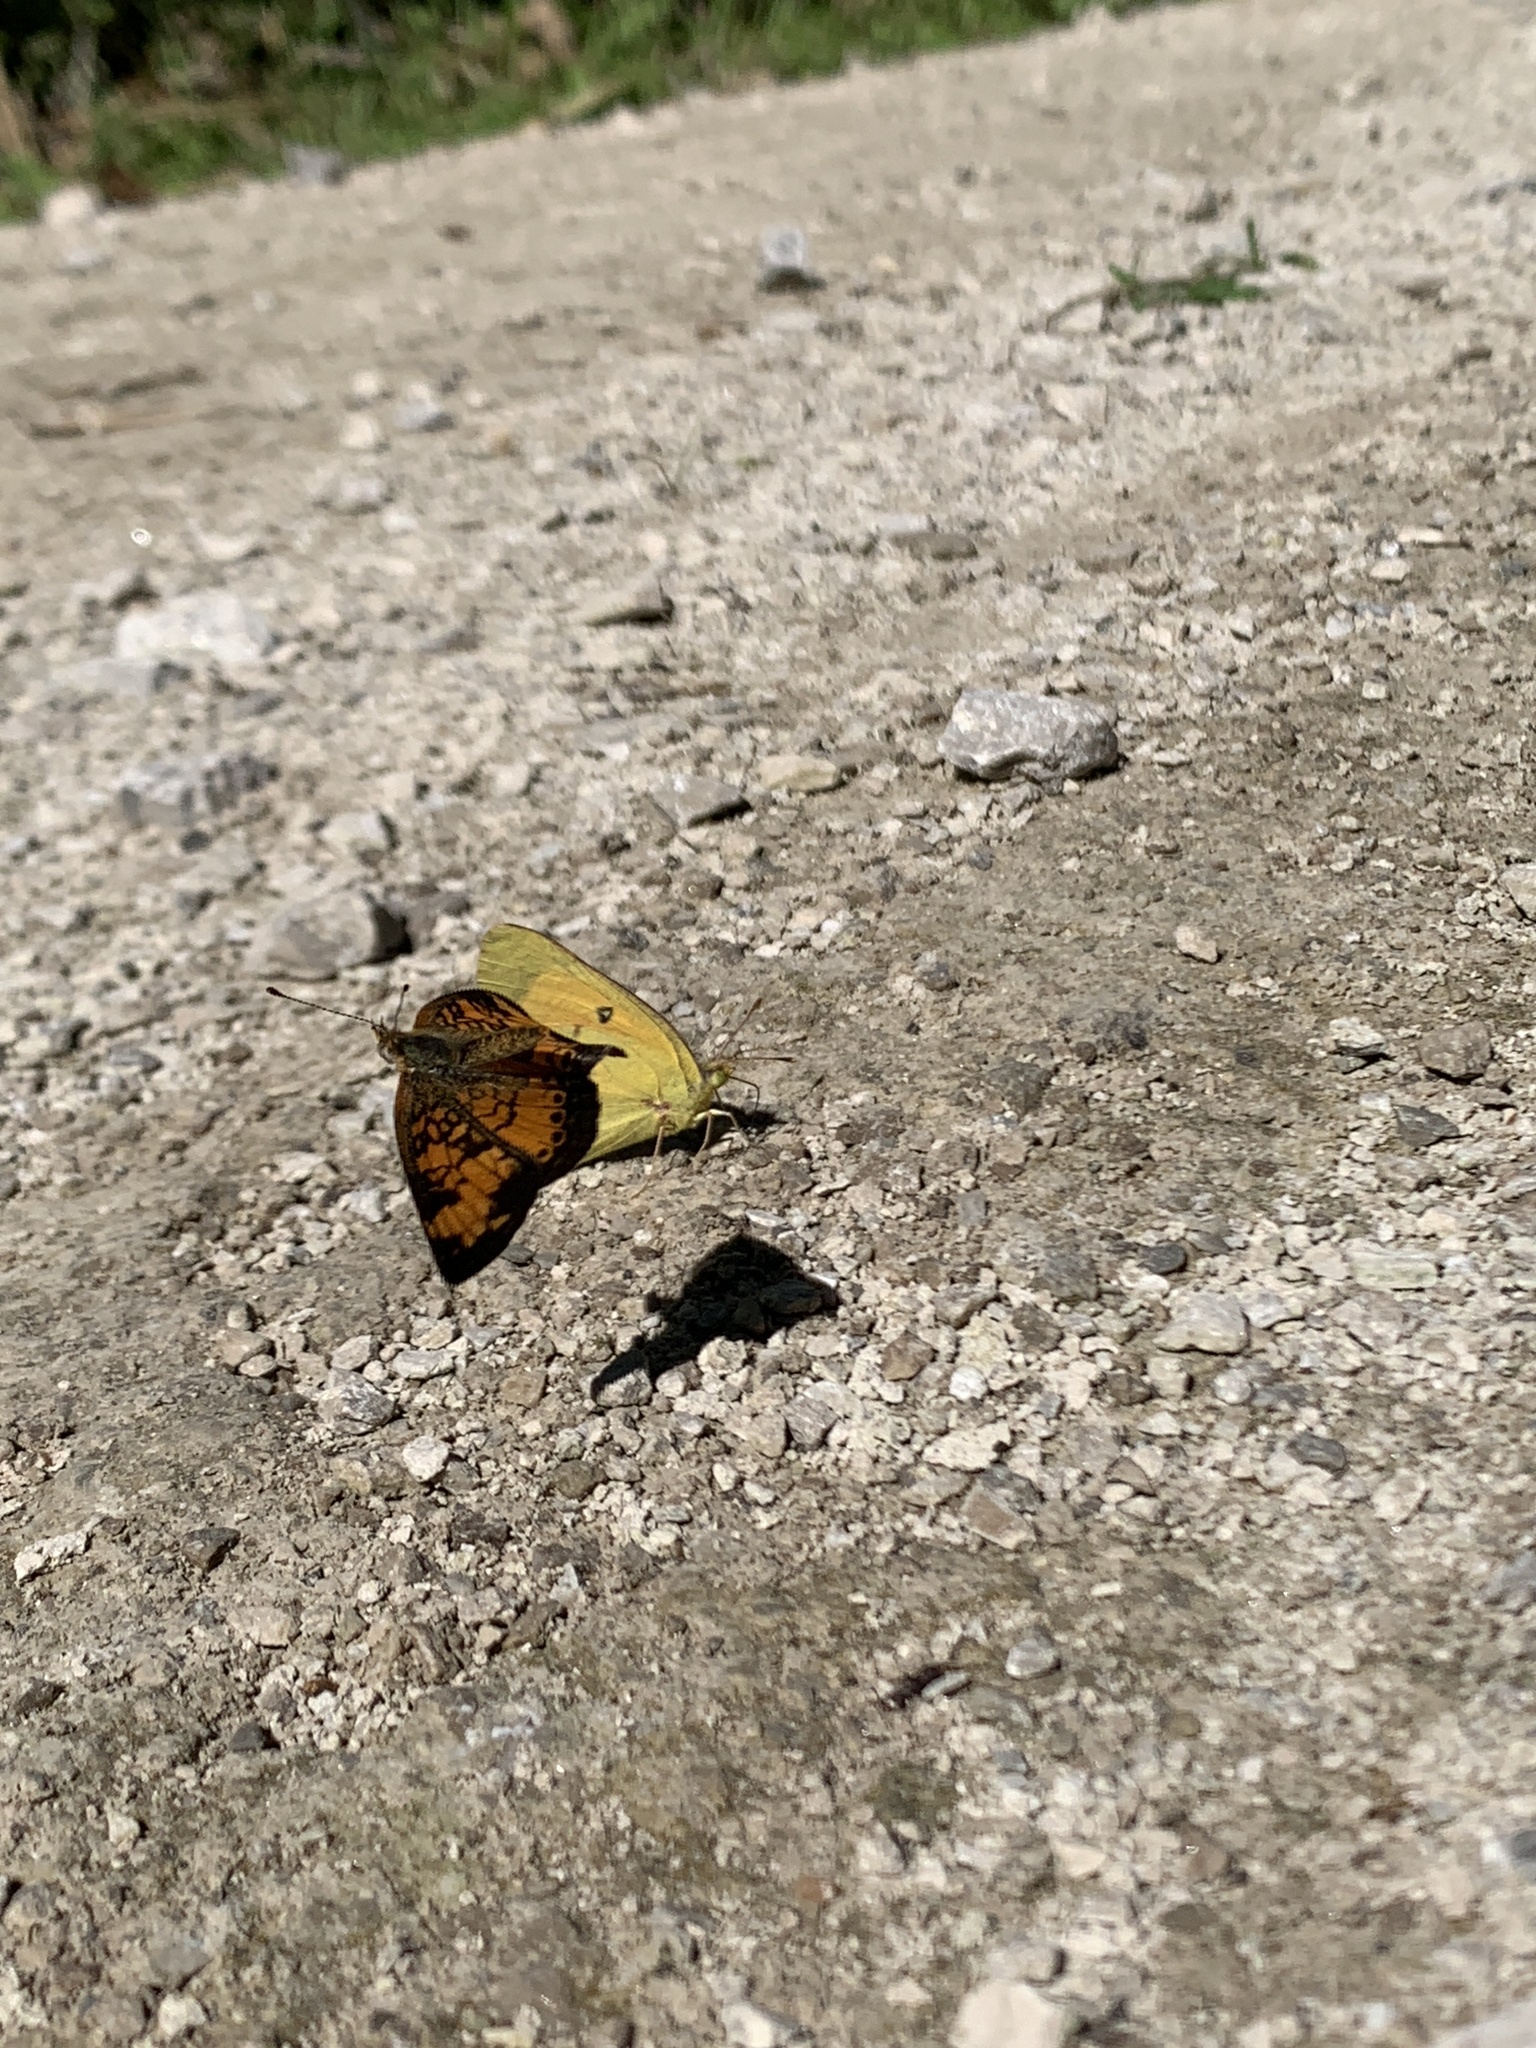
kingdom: Animalia
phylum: Arthropoda
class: Insecta
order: Lepidoptera
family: Pieridae
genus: Colias
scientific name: Colias eurytheme
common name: Alfalfa butterfly
